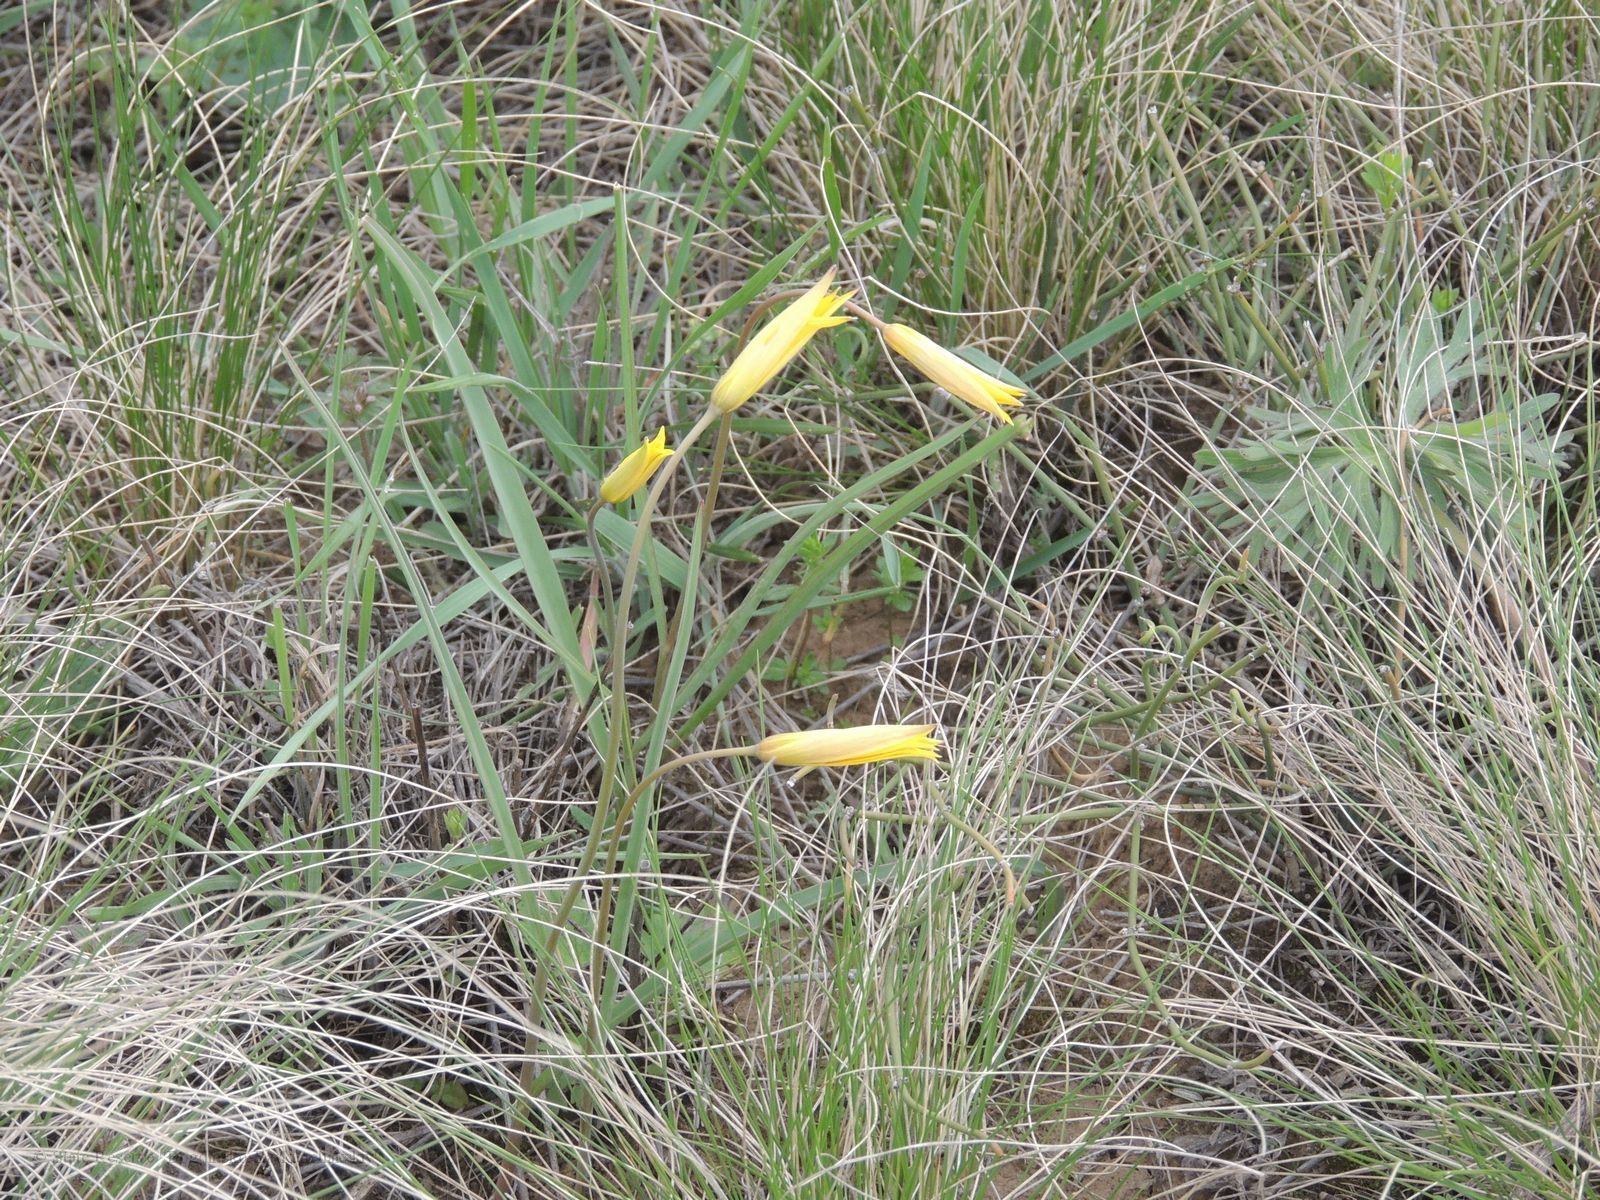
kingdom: Plantae
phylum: Tracheophyta
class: Liliopsida
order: Liliales
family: Liliaceae
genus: Tulipa
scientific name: Tulipa sylvestris
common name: Wild tulip
